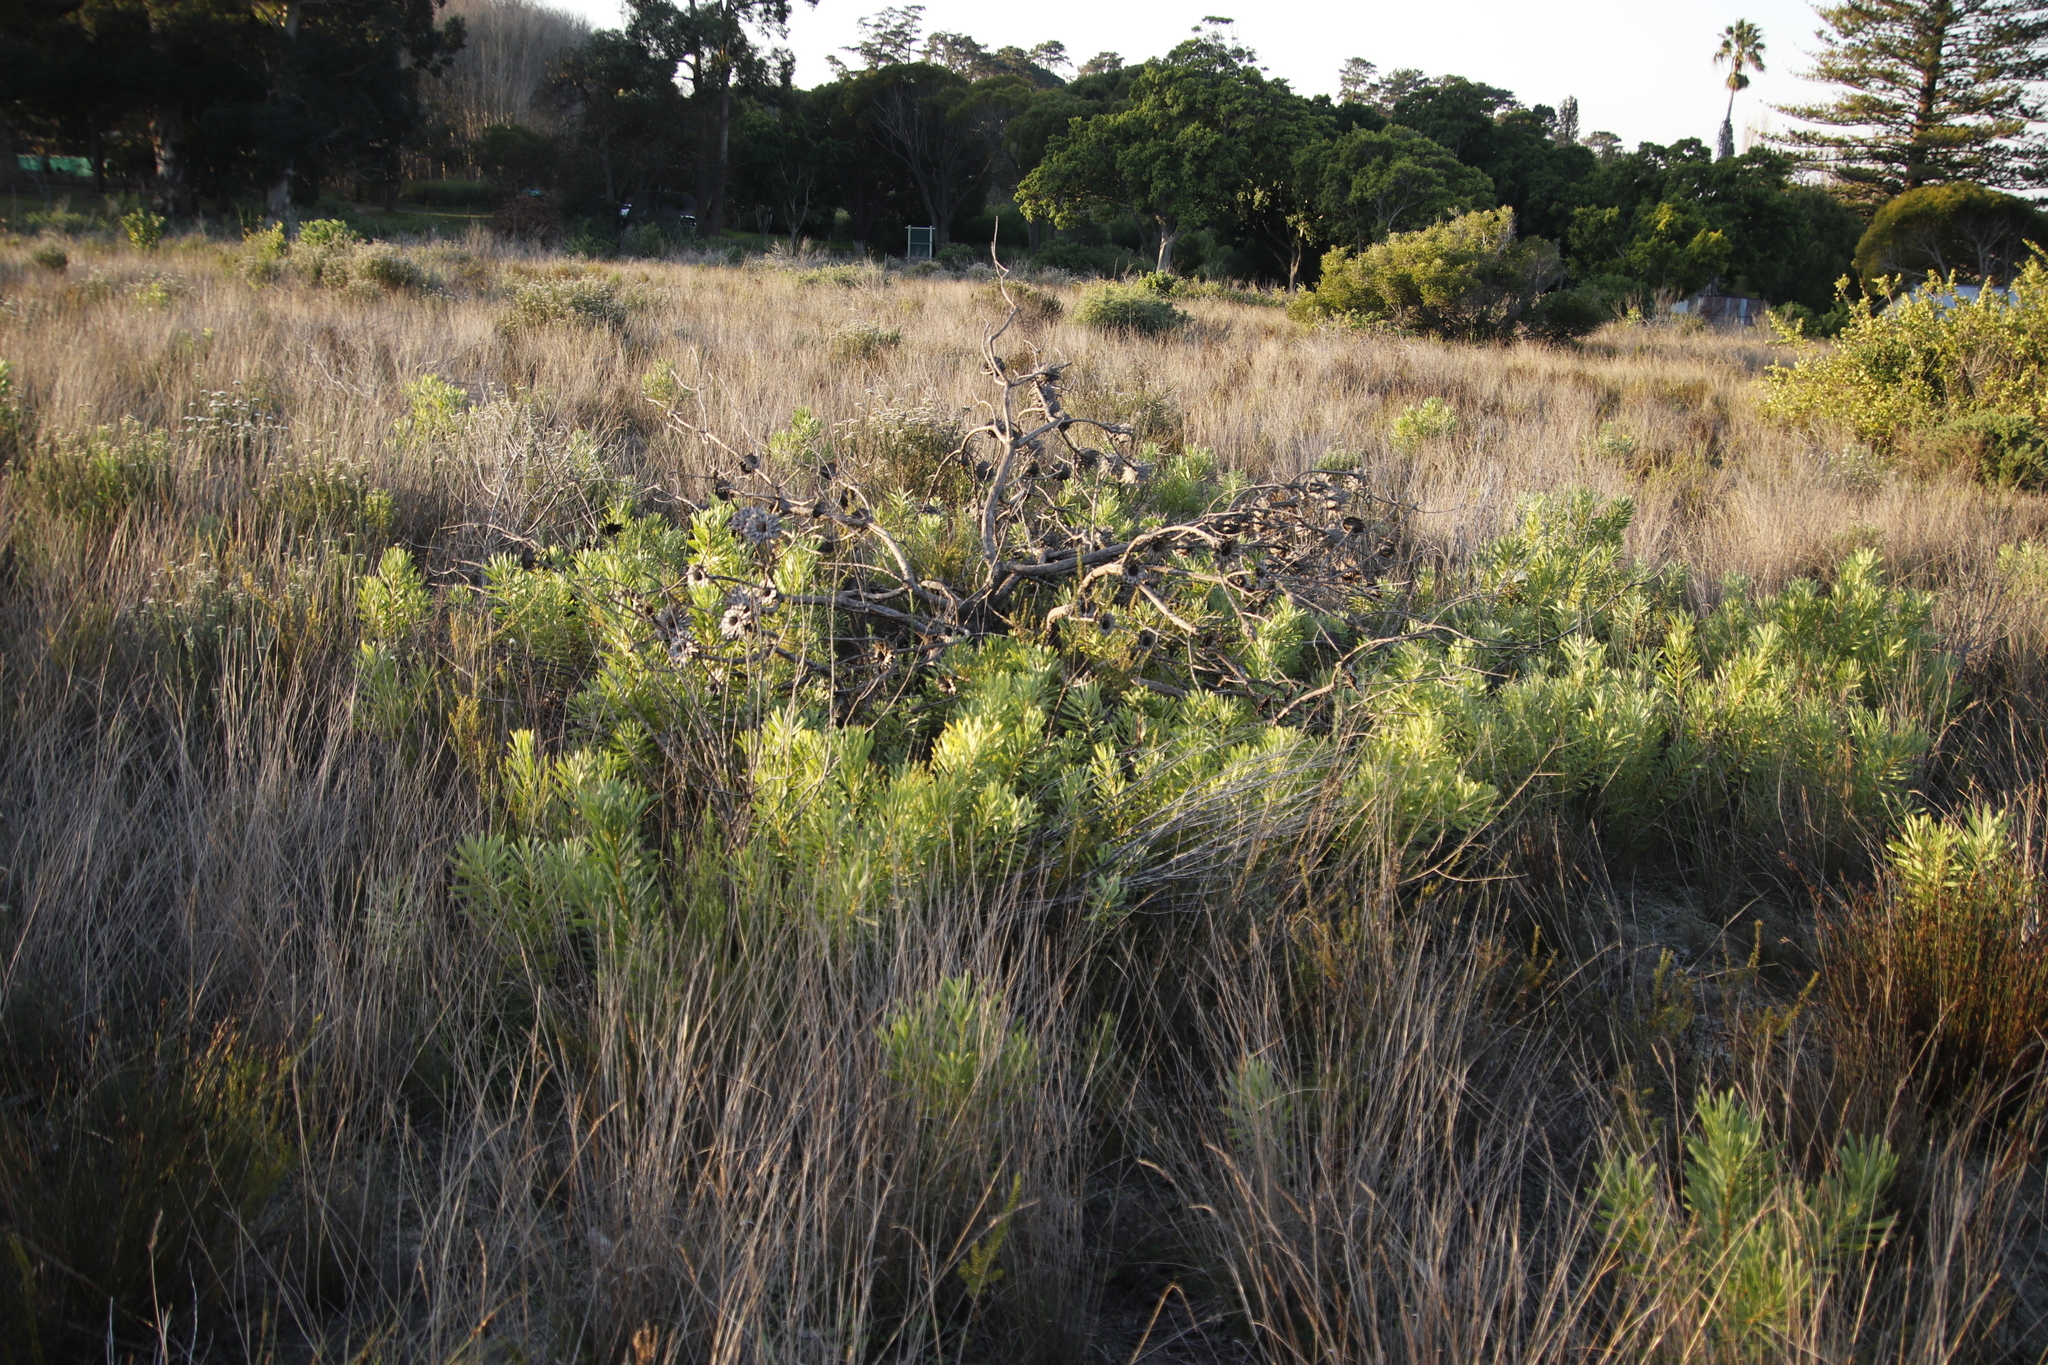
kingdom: Plantae
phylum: Tracheophyta
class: Magnoliopsida
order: Proteales
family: Proteaceae
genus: Protea
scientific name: Protea repens
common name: Sugarbush
